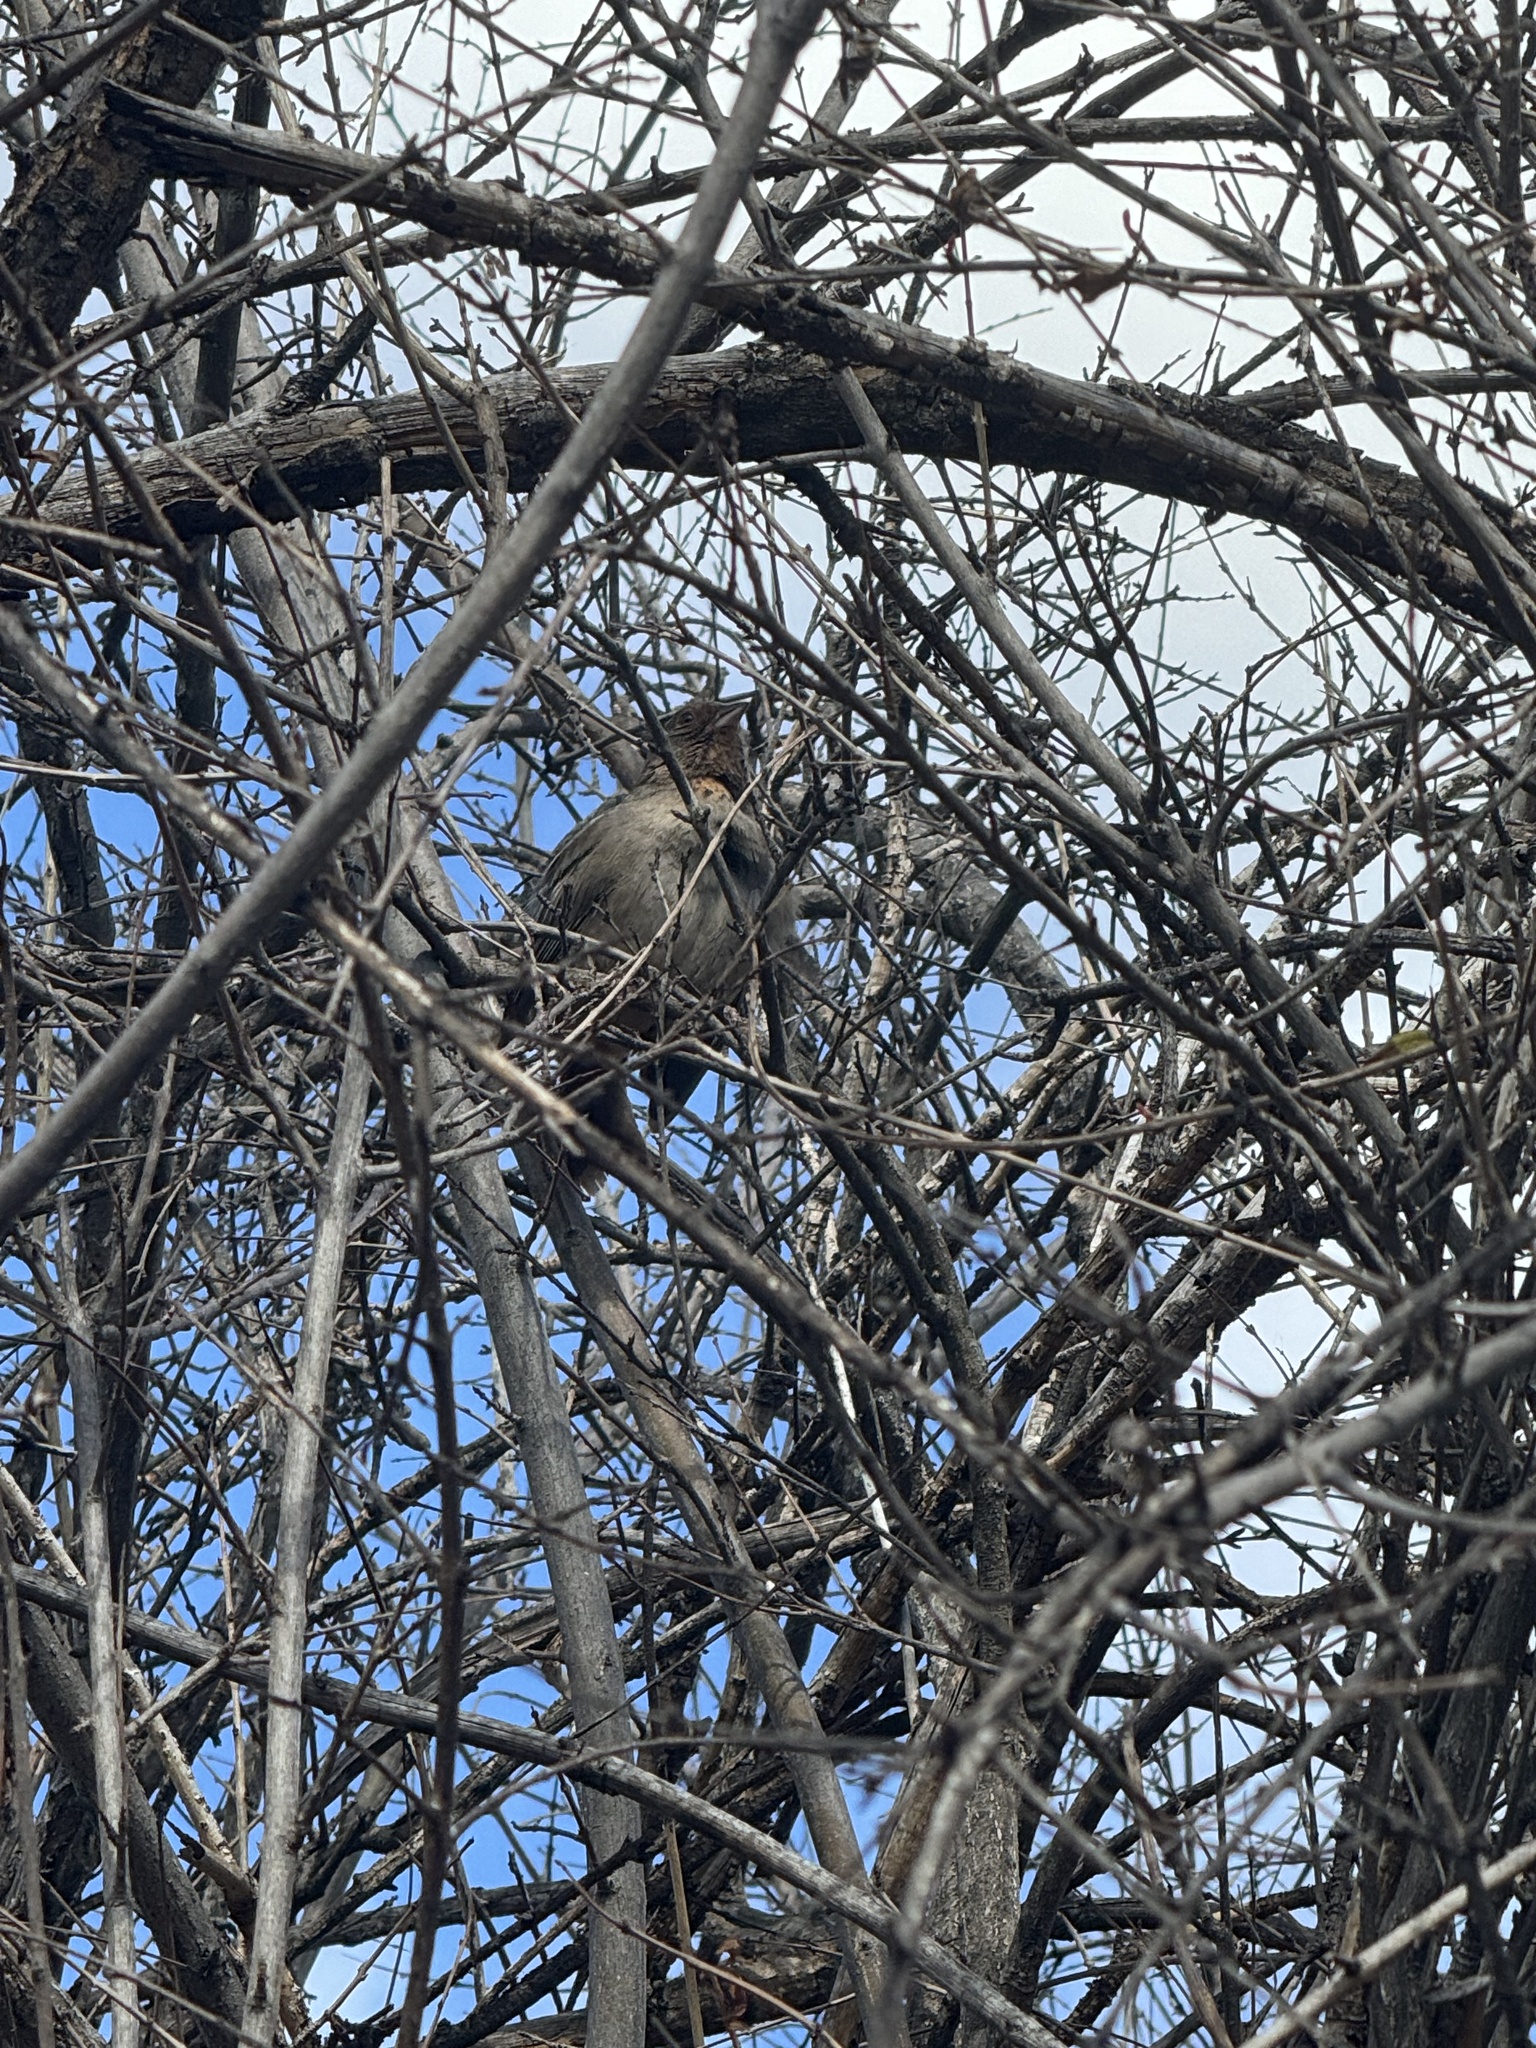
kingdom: Animalia
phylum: Chordata
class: Aves
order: Passeriformes
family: Passerellidae
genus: Melozone
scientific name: Melozone crissalis
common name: California towhee
